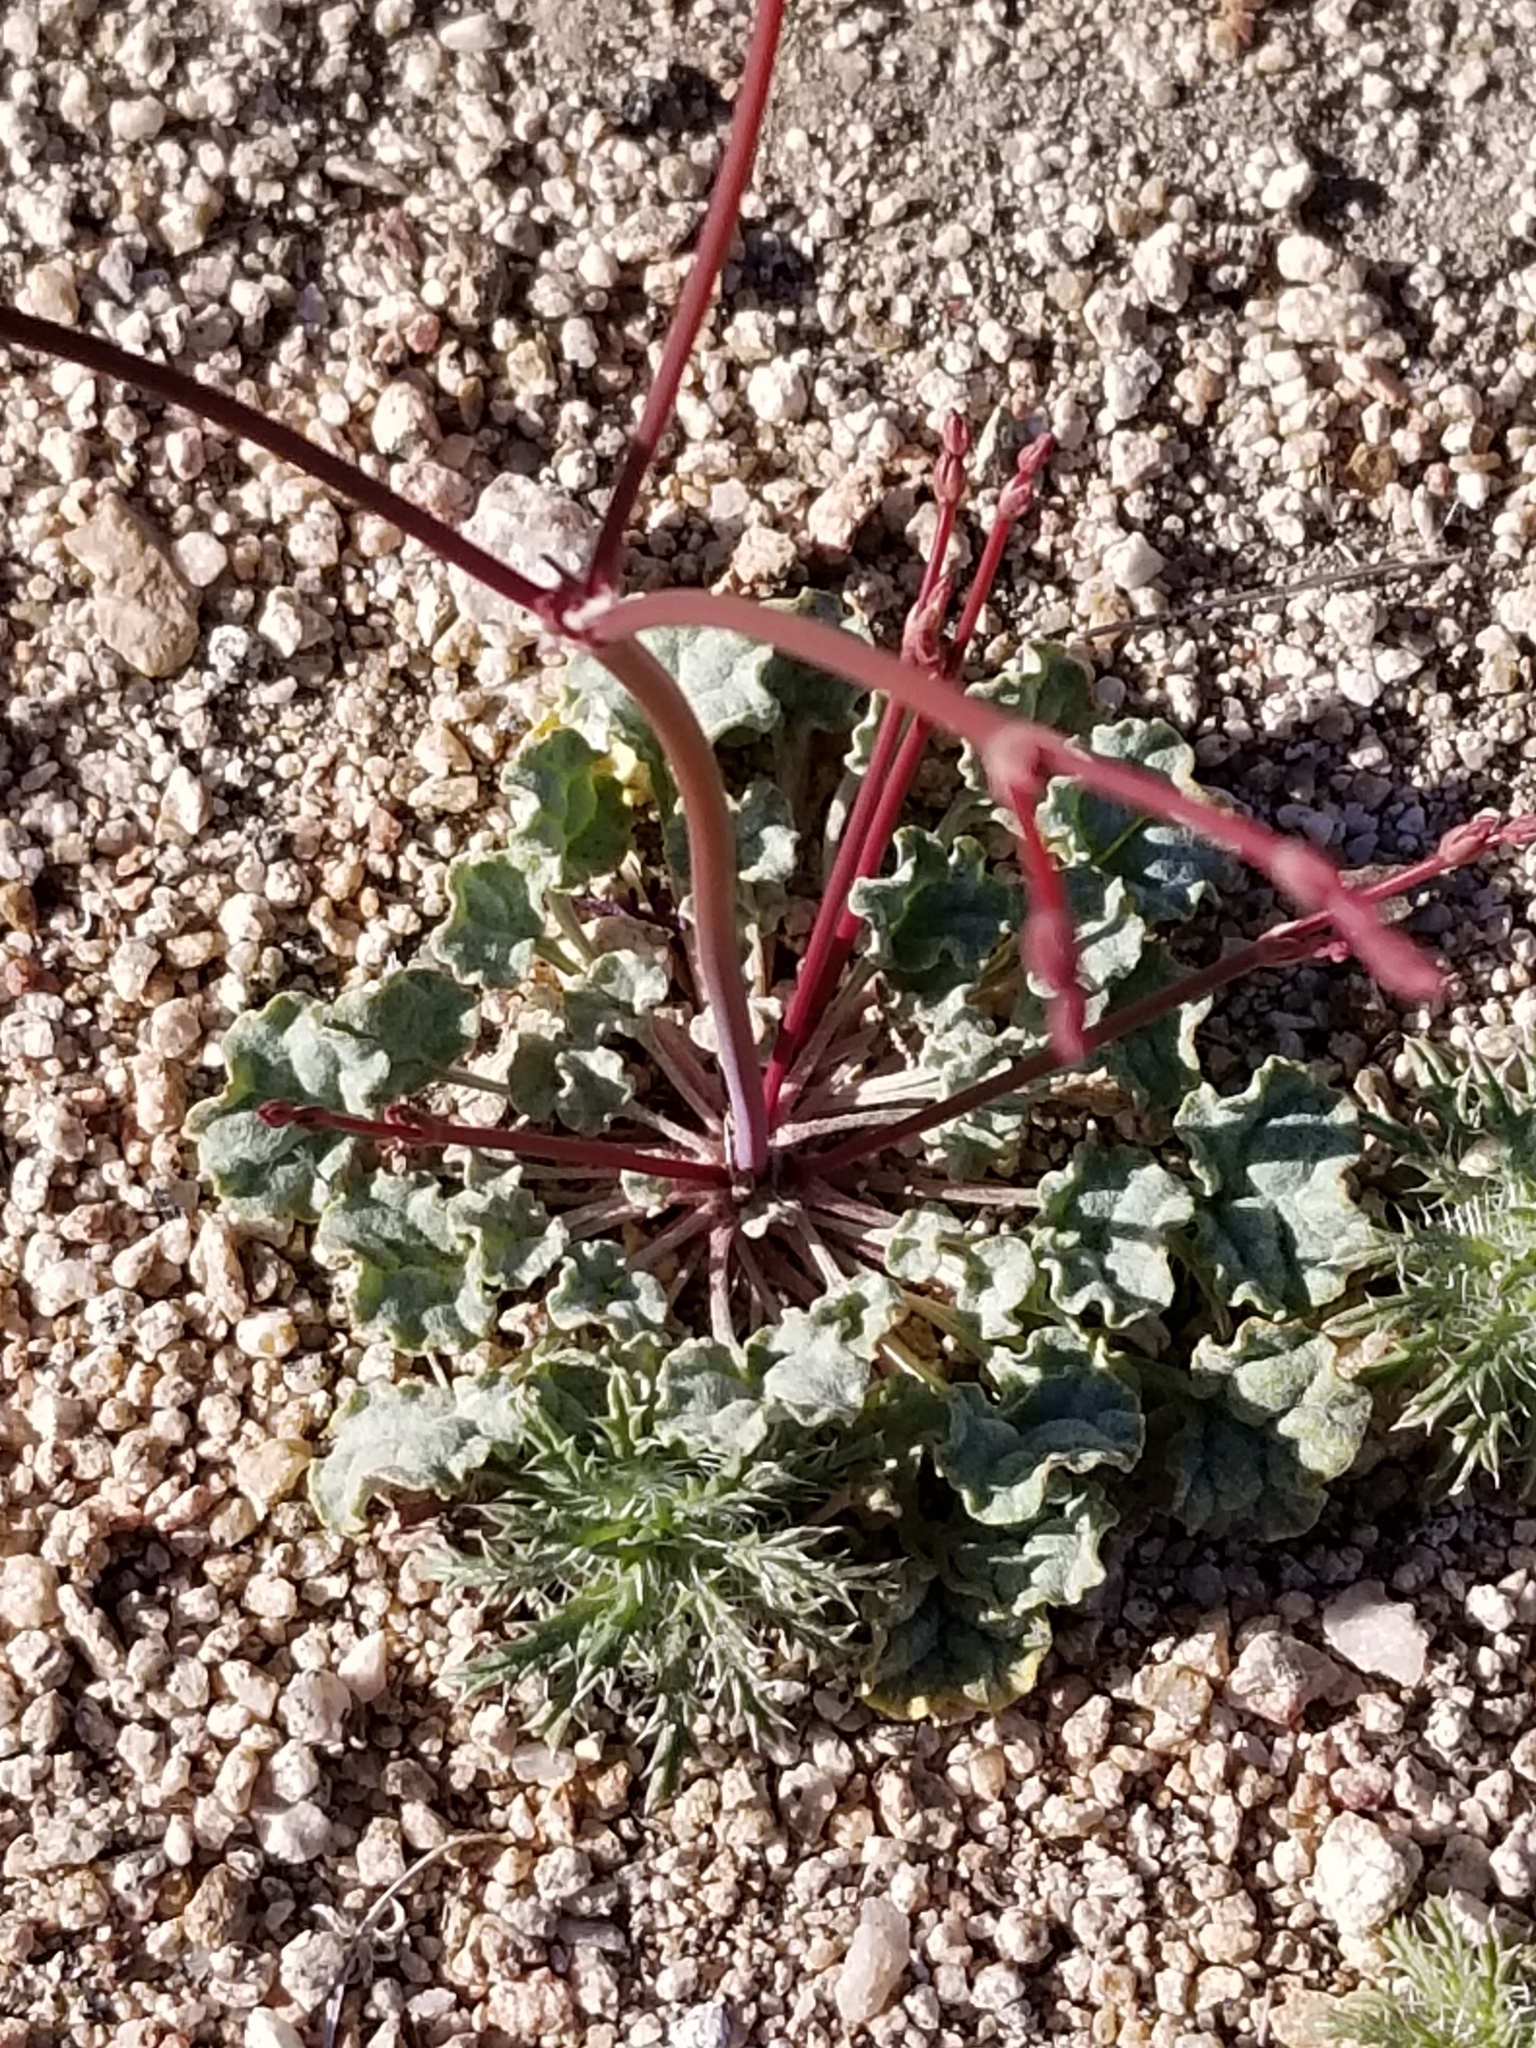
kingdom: Plantae
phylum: Tracheophyta
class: Magnoliopsida
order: Caryophyllales
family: Polygonaceae
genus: Eriogonum
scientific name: Eriogonum inflatum
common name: Desert trumpet
